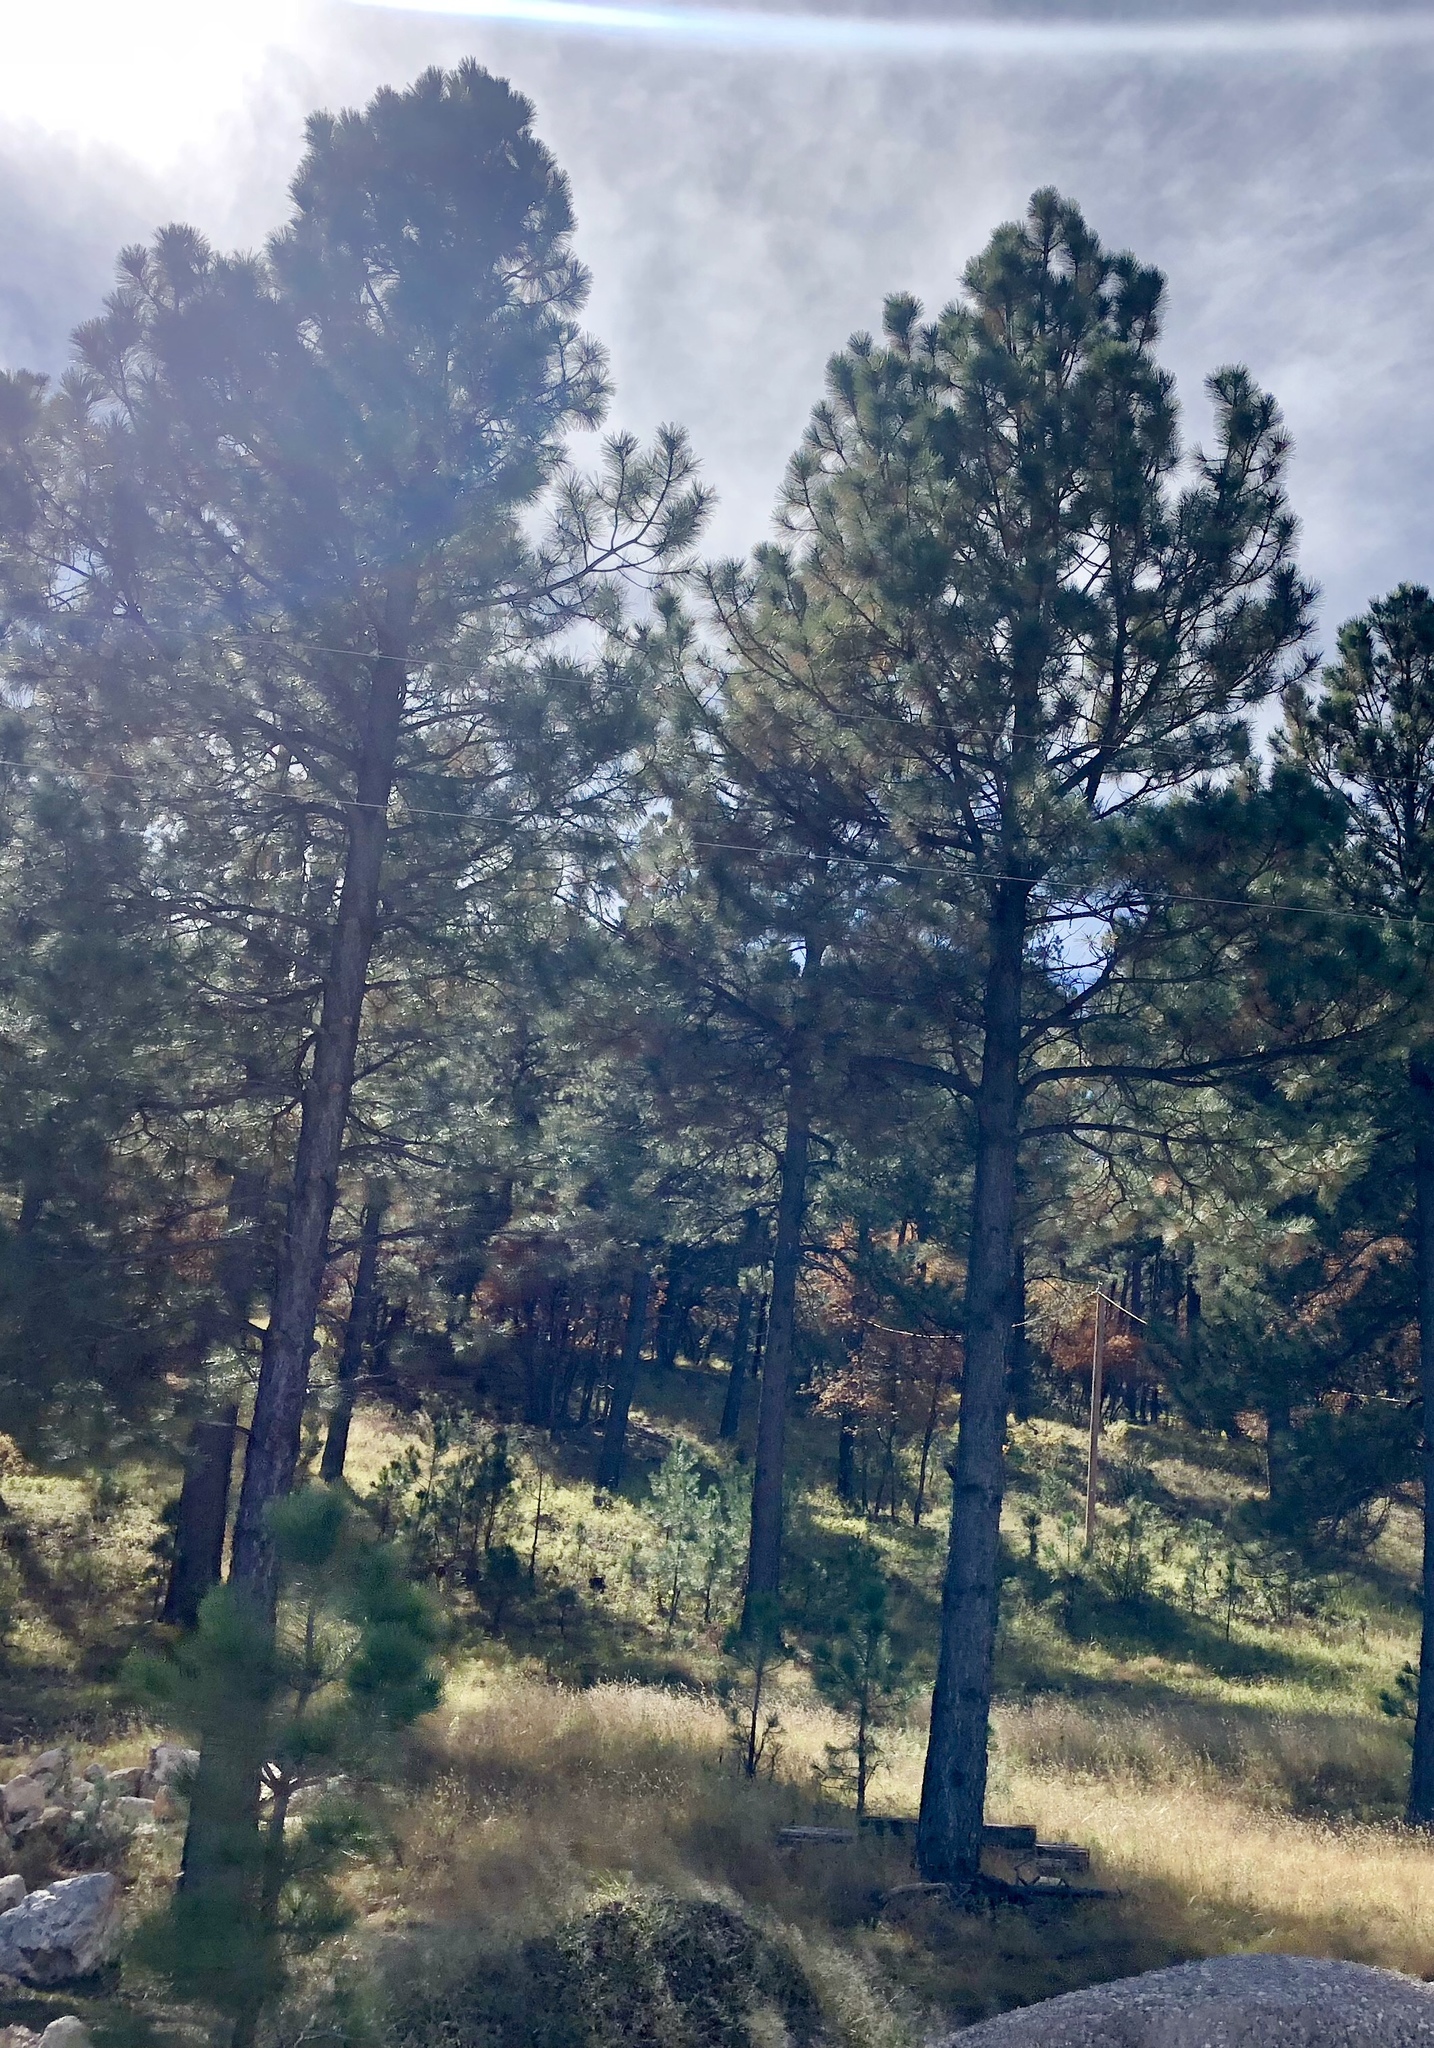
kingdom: Plantae
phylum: Tracheophyta
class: Pinopsida
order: Pinales
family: Pinaceae
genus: Pinus
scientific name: Pinus ponderosa
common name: Western yellow-pine
